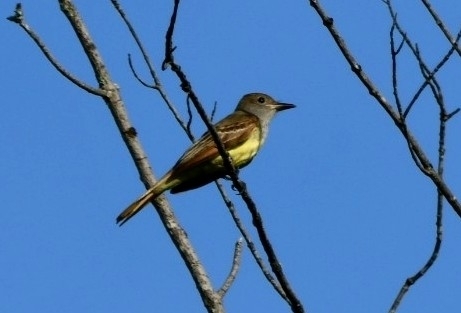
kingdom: Animalia
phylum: Chordata
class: Aves
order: Passeriformes
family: Tyrannidae
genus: Myiarchus
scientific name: Myiarchus crinitus
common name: Great crested flycatcher
